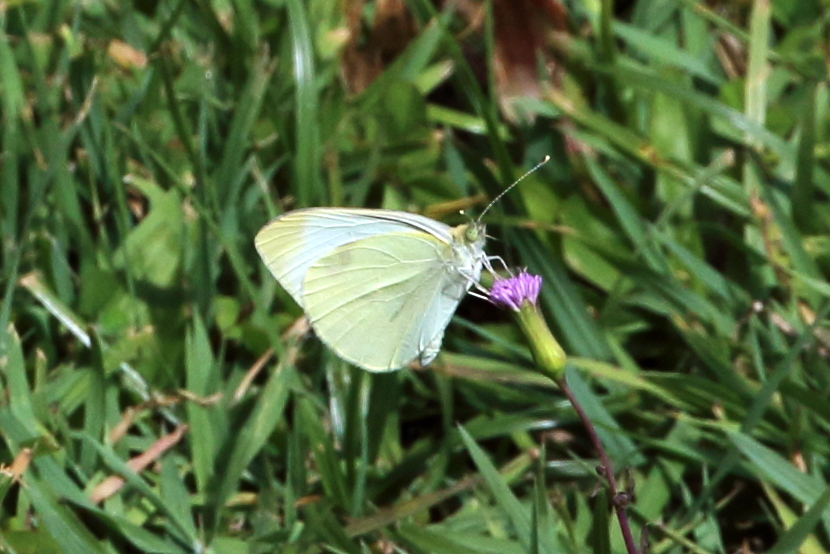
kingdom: Animalia
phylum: Arthropoda
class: Insecta
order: Lepidoptera
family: Pieridae
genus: Pieris
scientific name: Pieris rapae
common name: Small white
